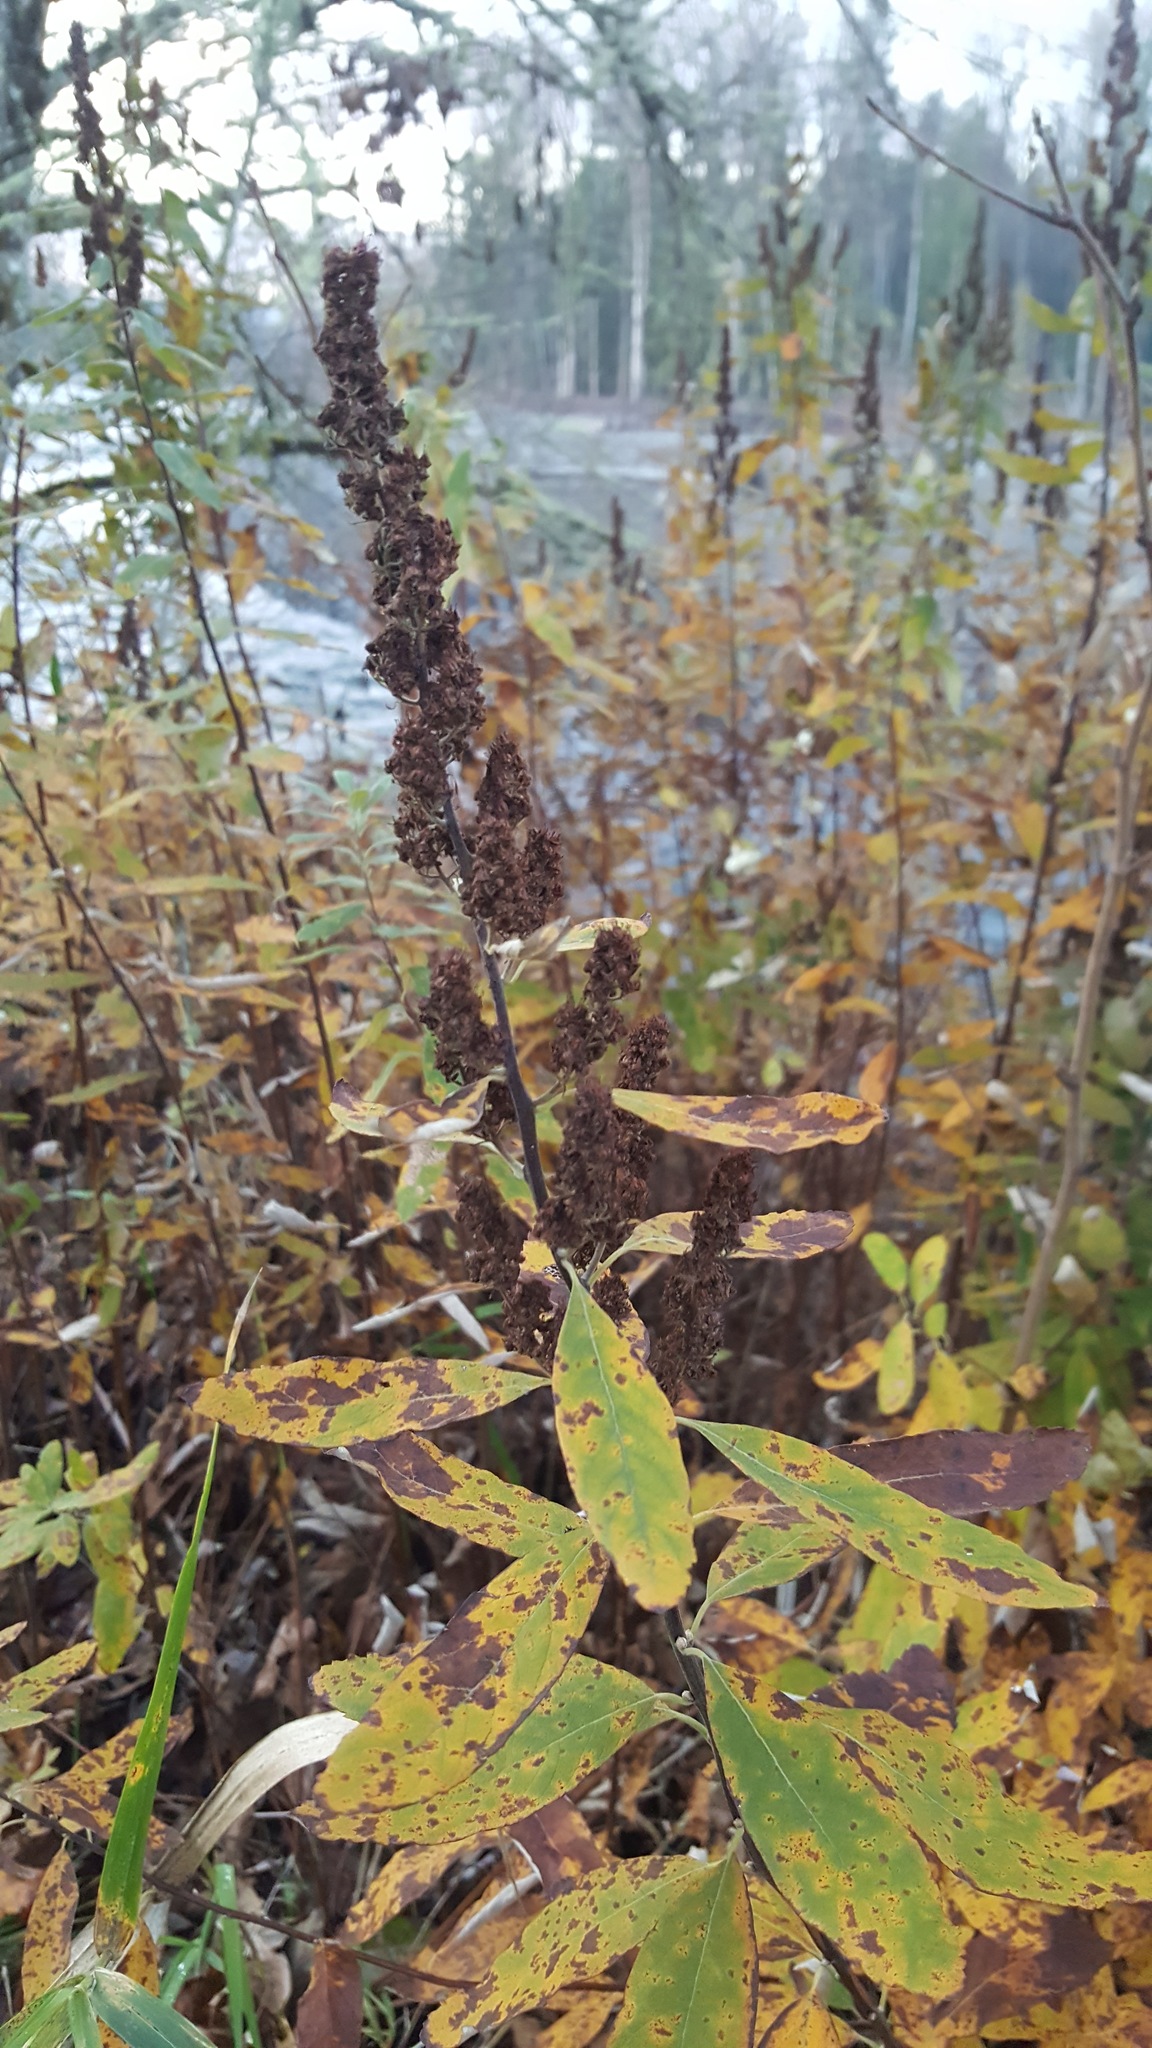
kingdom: Plantae
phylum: Tracheophyta
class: Magnoliopsida
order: Rosales
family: Rosaceae
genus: Spiraea
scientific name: Spiraea douglasii
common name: Steeplebush
